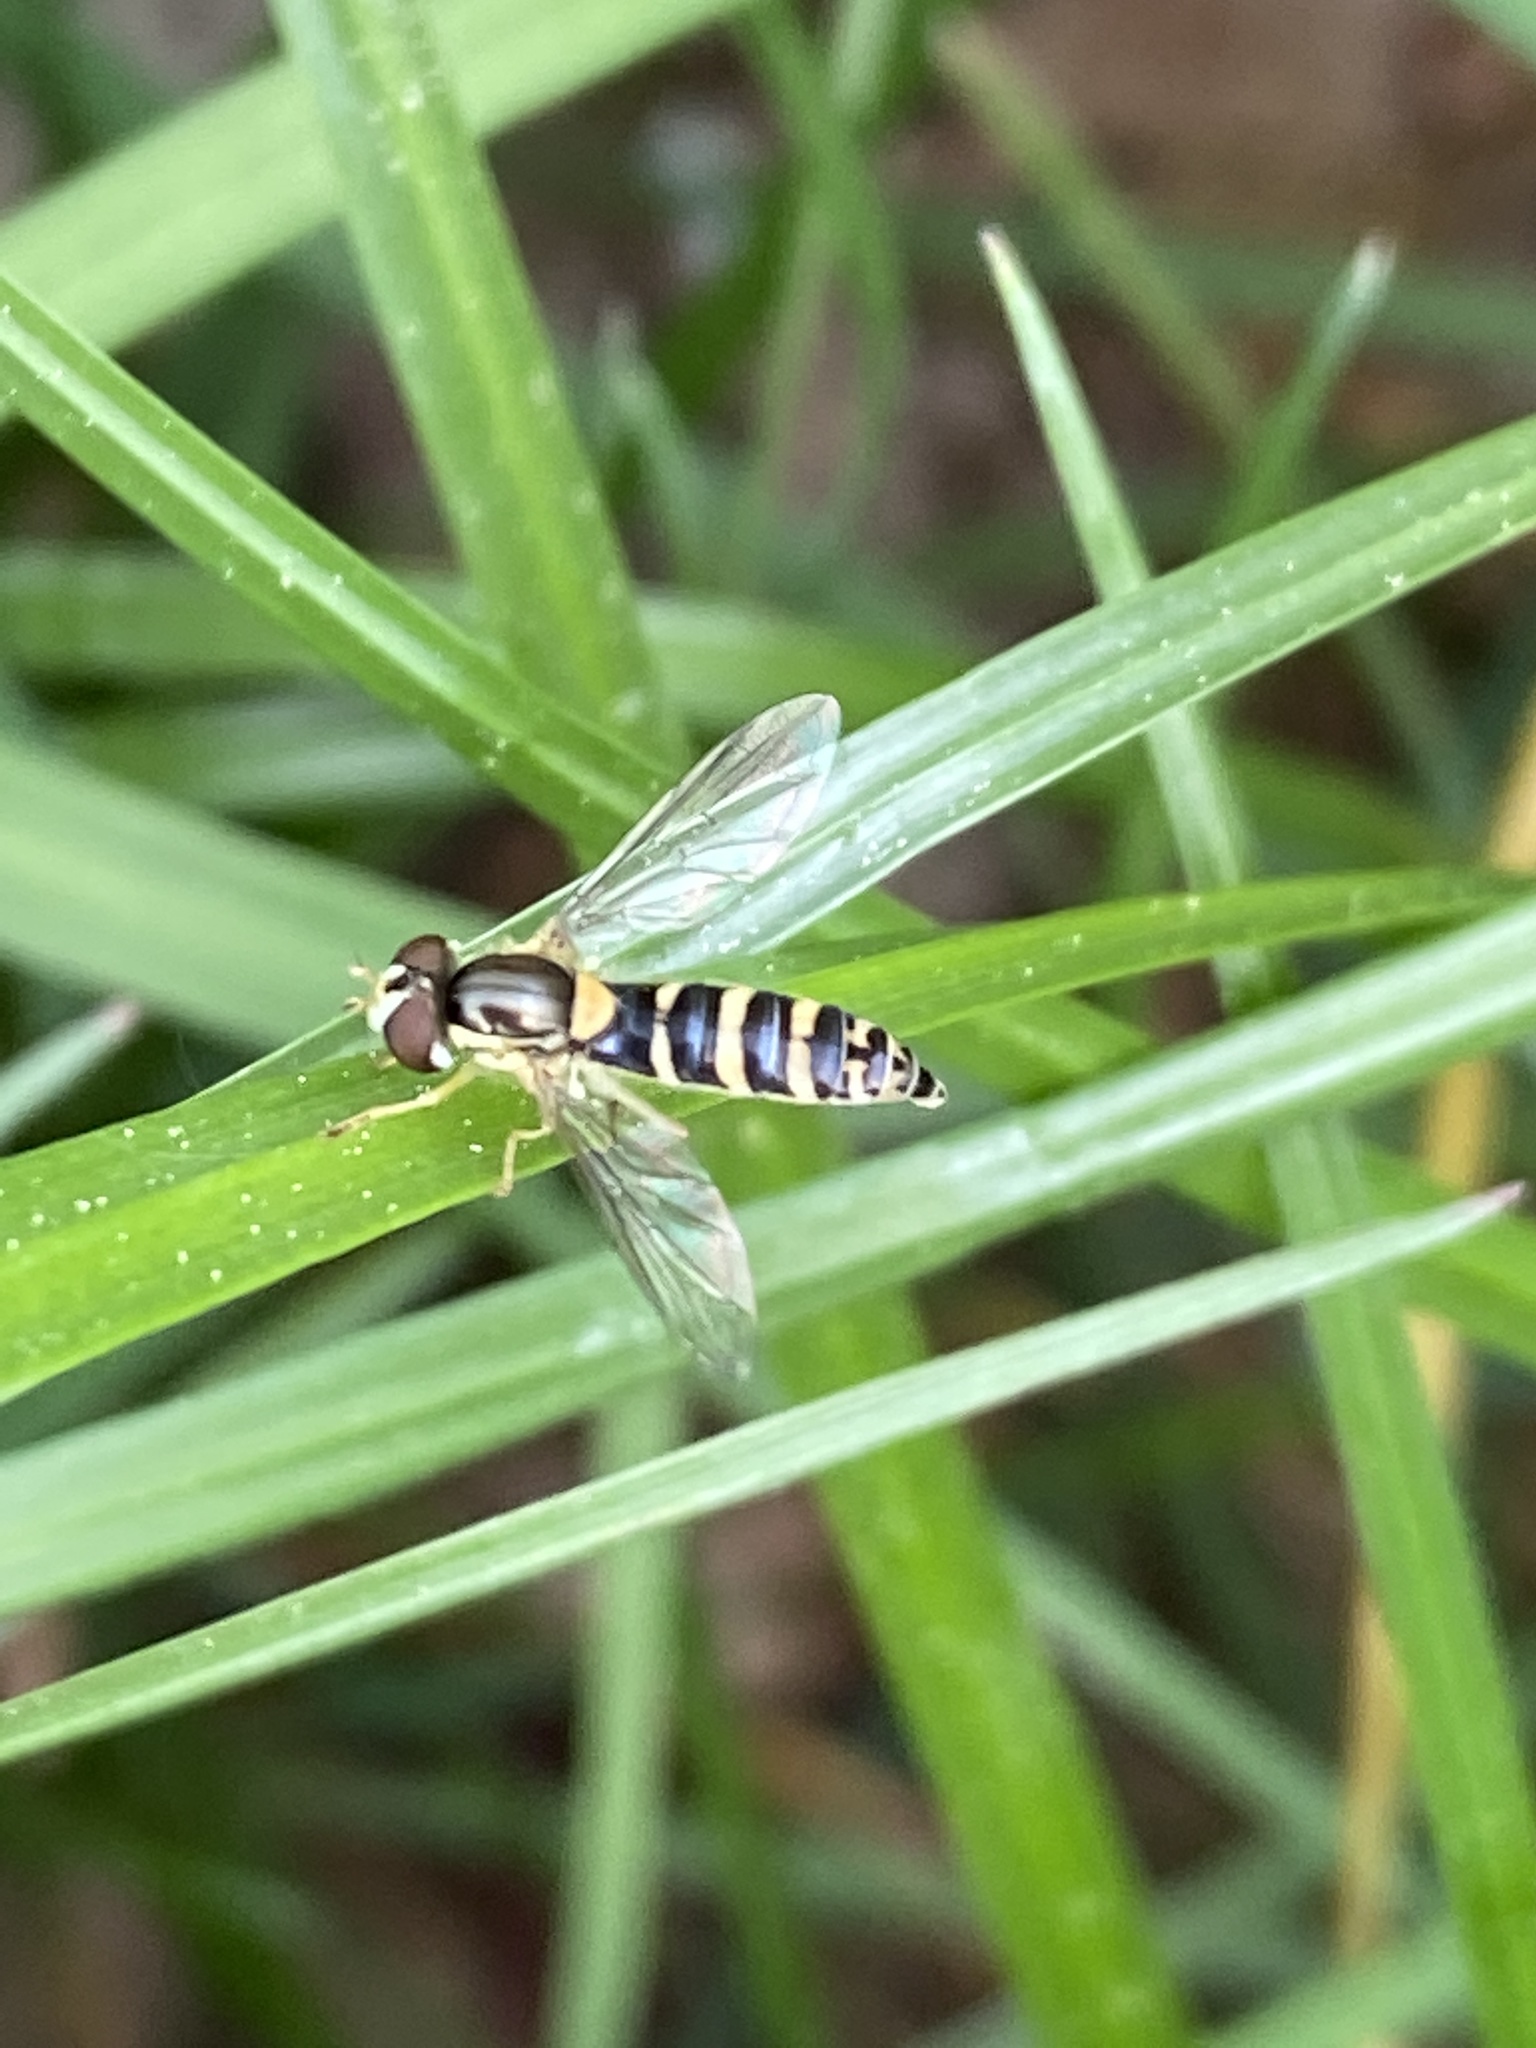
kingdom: Animalia
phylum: Arthropoda
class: Insecta
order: Diptera
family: Syrphidae
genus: Sphaerophoria
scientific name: Sphaerophoria
